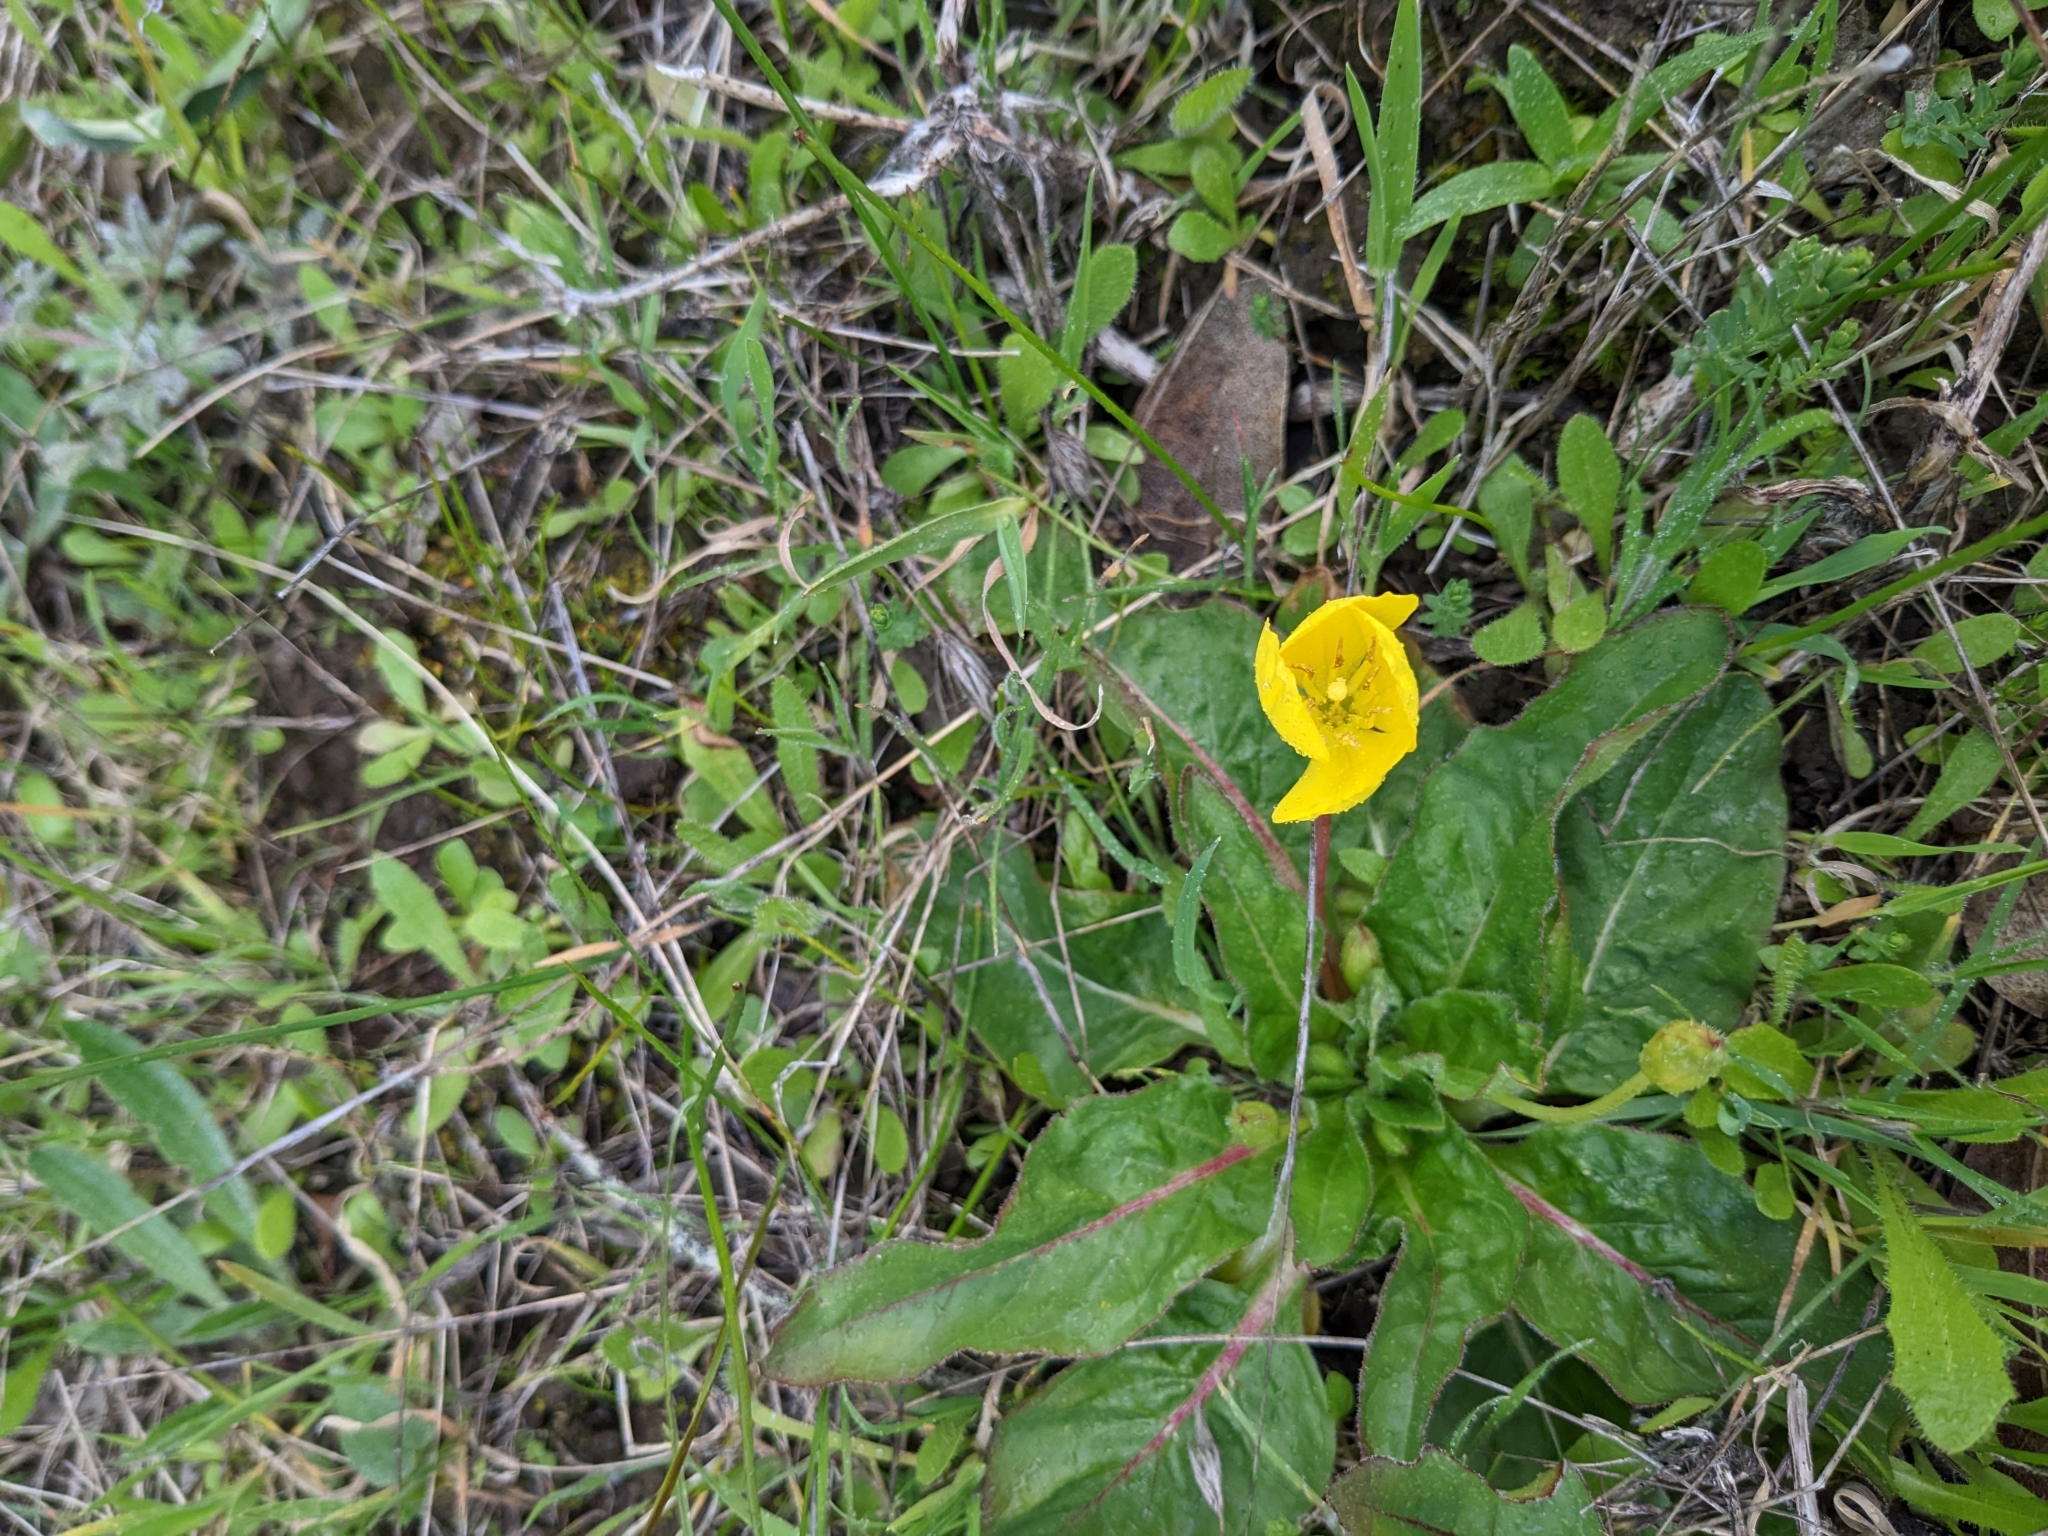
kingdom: Plantae
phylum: Tracheophyta
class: Magnoliopsida
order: Myrtales
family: Onagraceae
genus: Taraxia
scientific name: Taraxia ovata
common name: Goldeneggs
